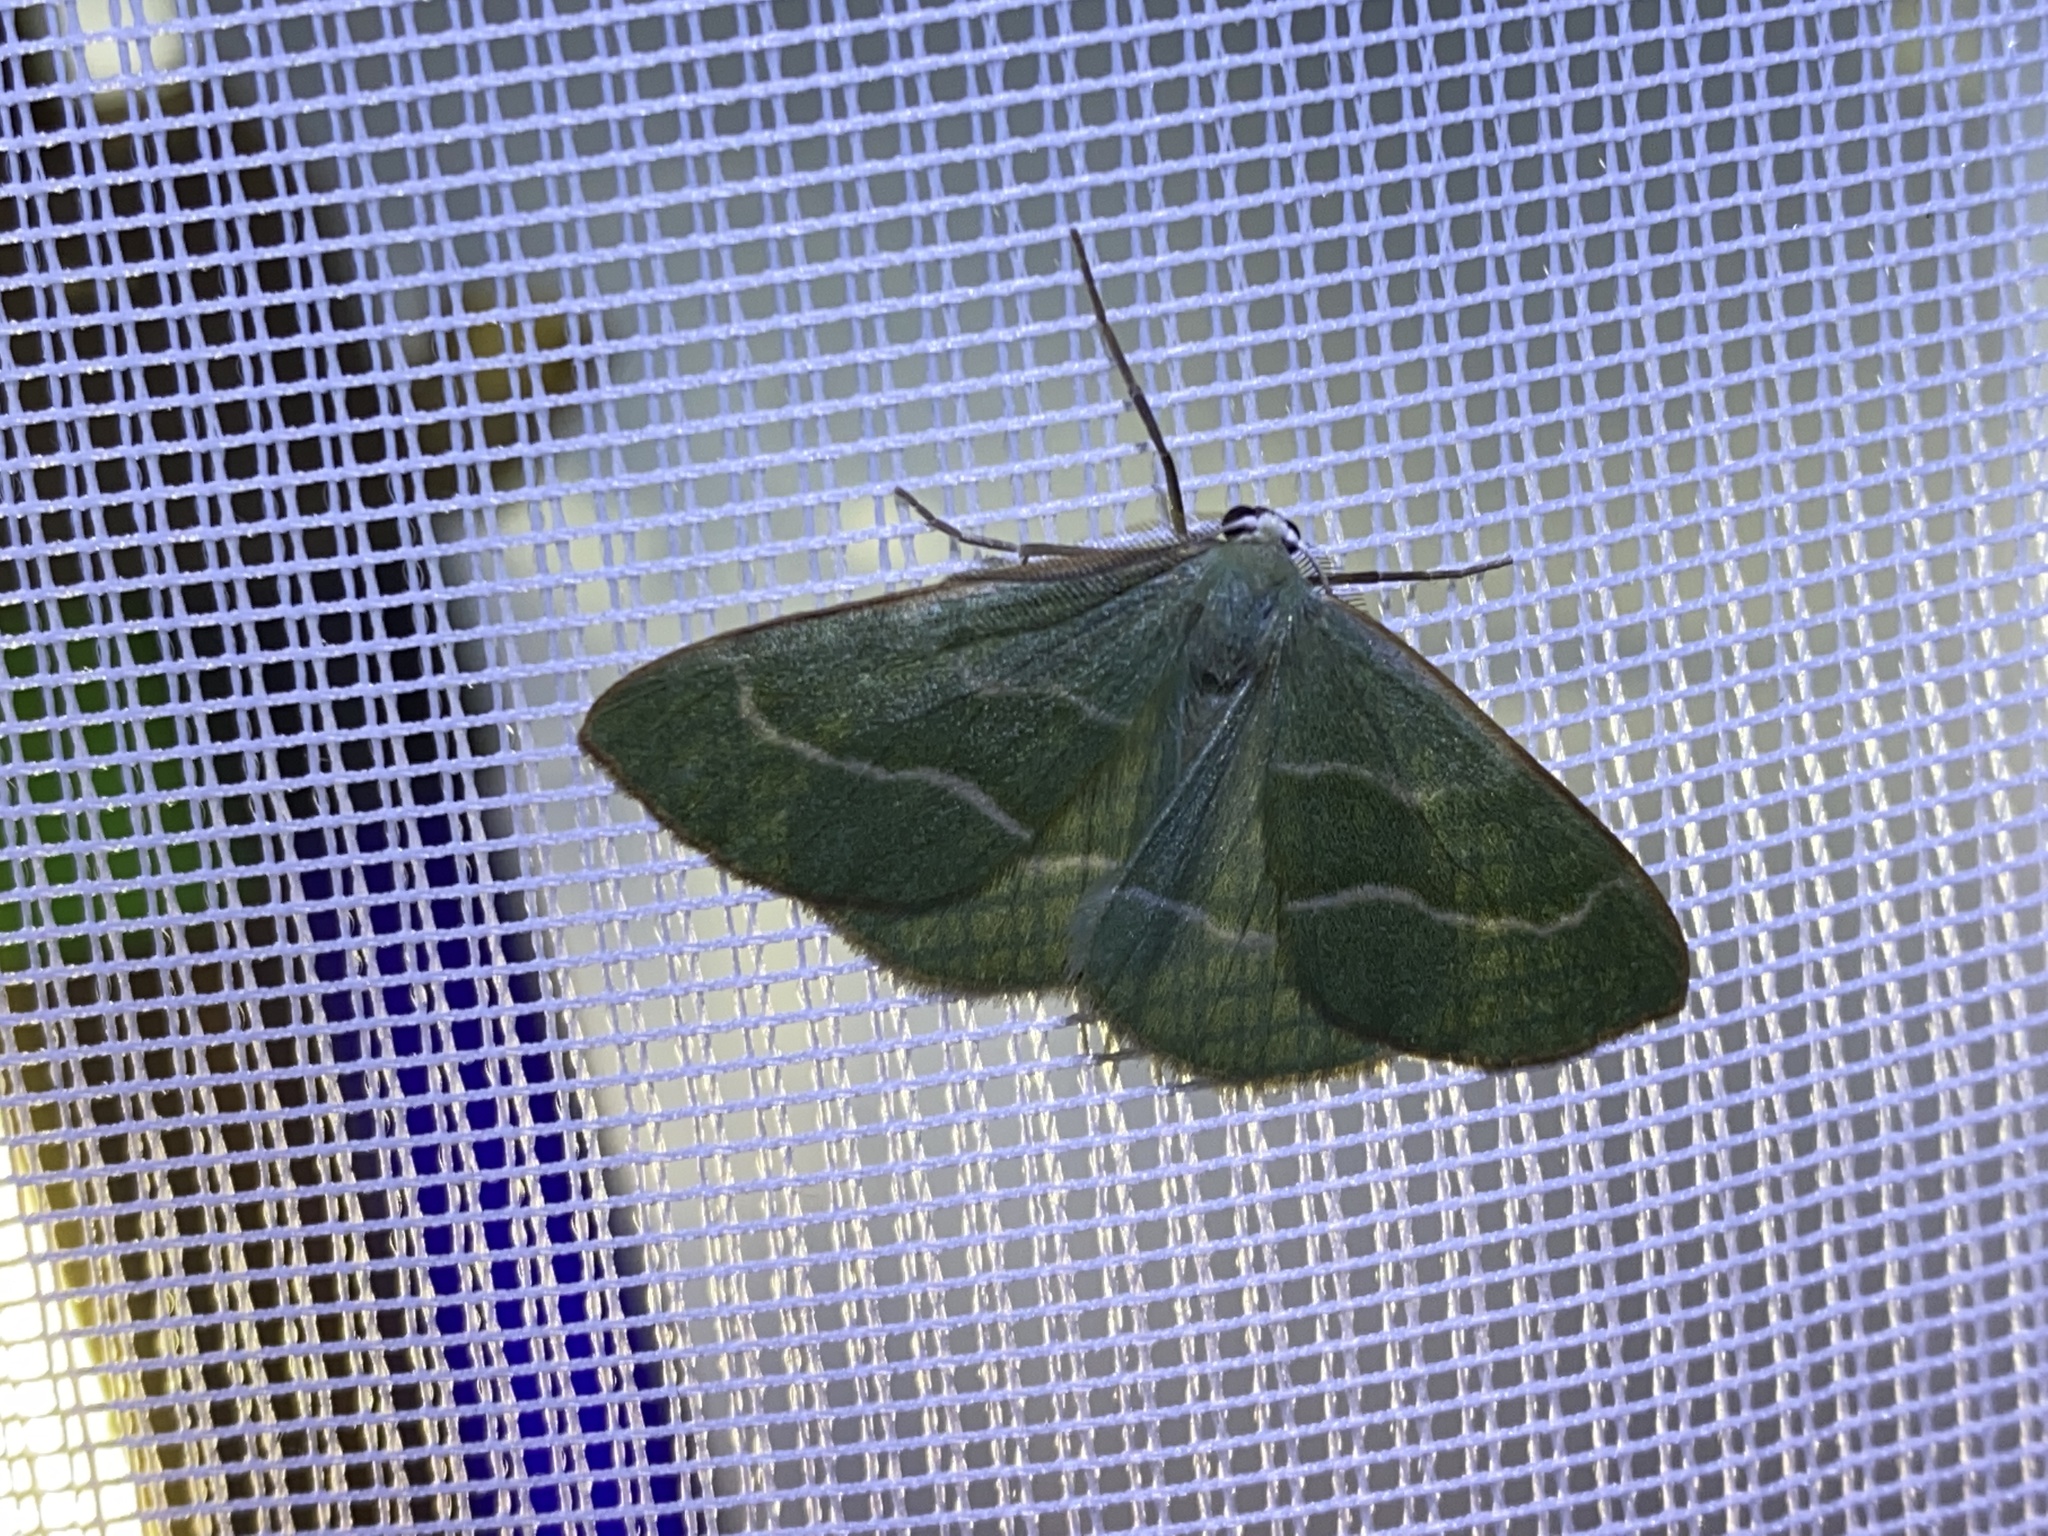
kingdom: Animalia
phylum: Arthropoda
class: Insecta
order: Lepidoptera
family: Geometridae
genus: Hylaea
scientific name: Hylaea fasciaria
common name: Barred red
